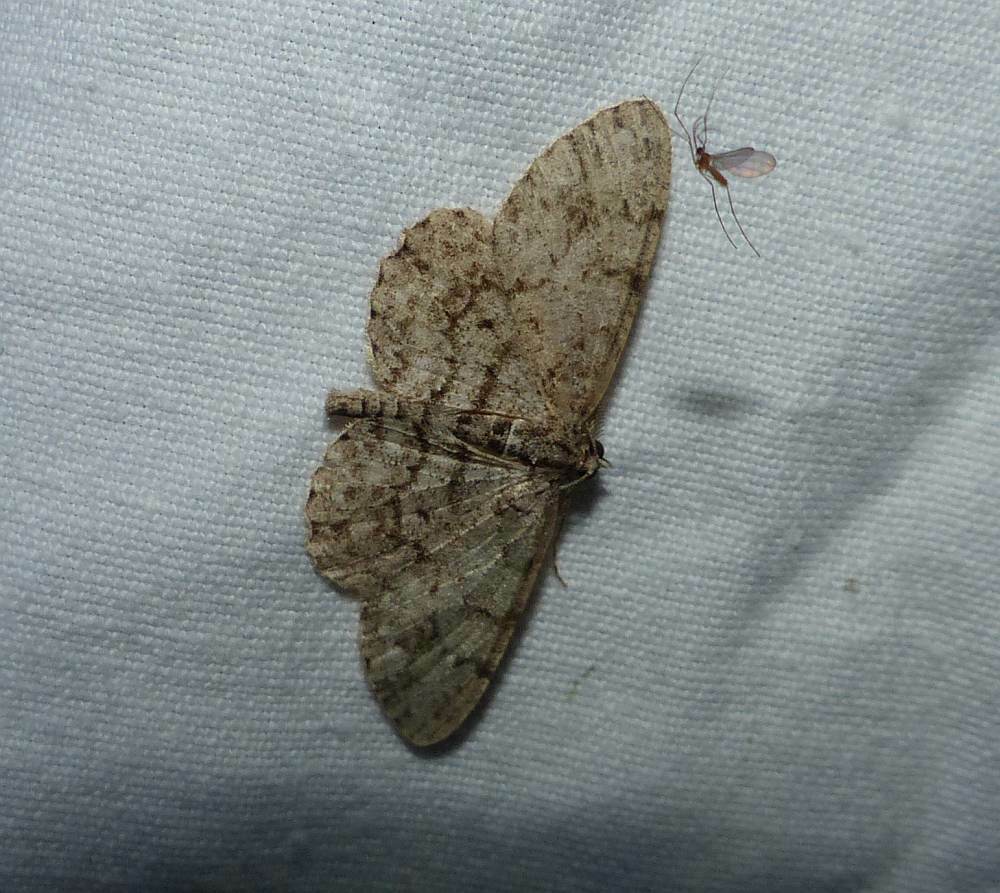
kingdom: Animalia
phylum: Arthropoda
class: Insecta
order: Lepidoptera
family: Geometridae
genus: Protoboarmia
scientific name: Protoboarmia porcelaria
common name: Porcelain gray
